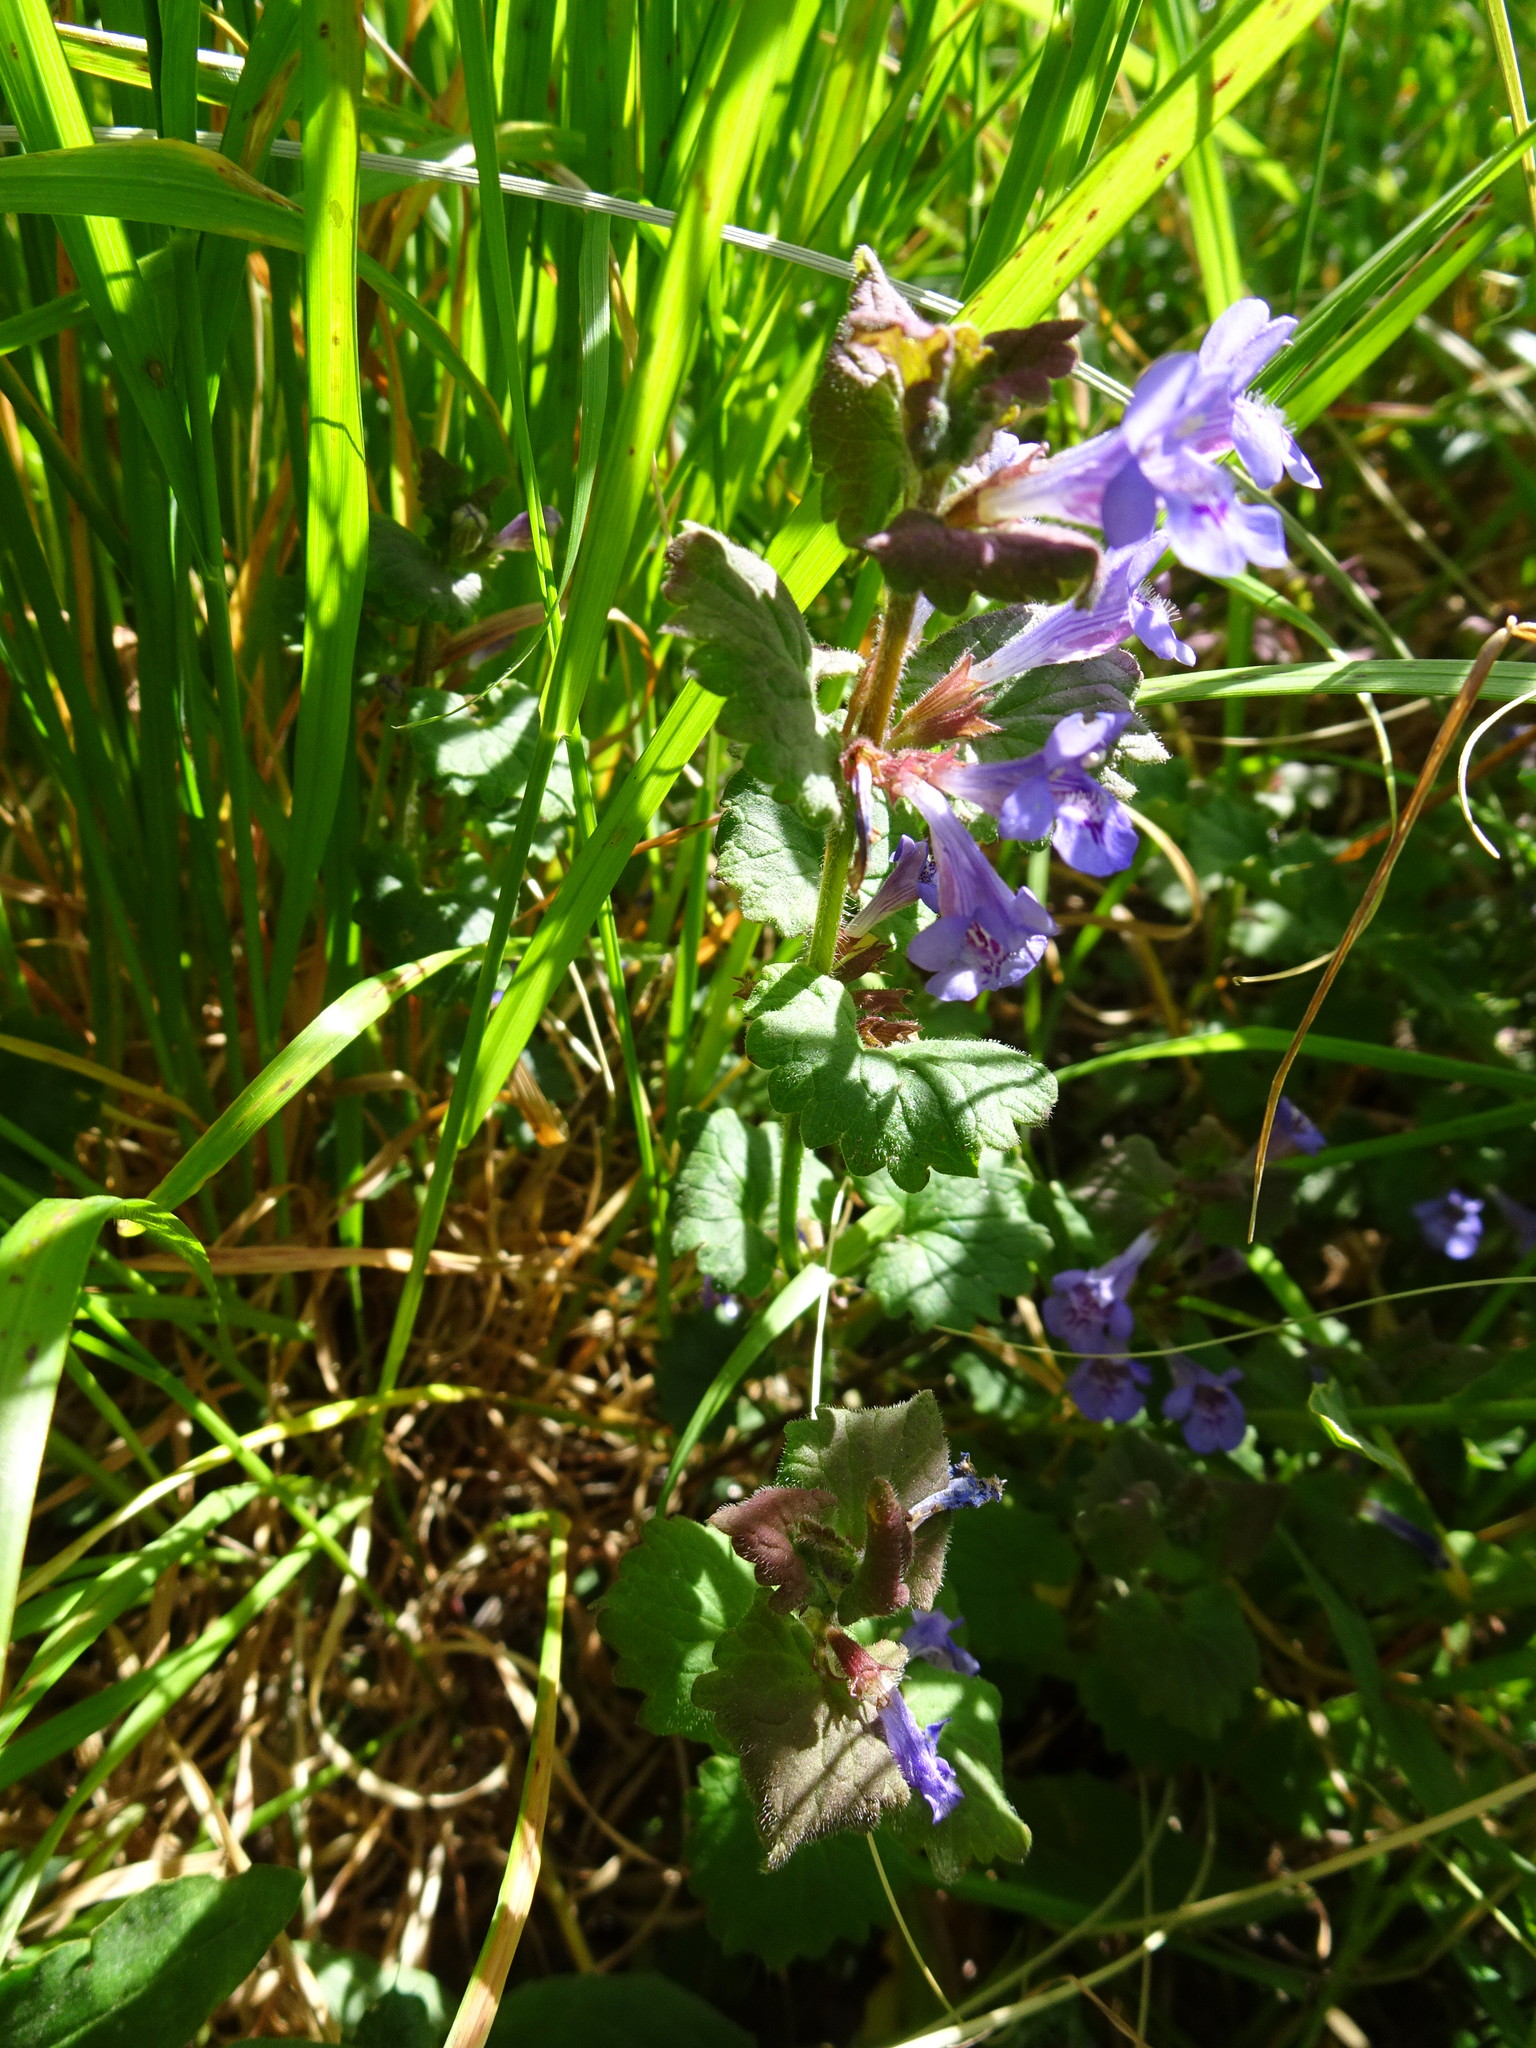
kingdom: Plantae
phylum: Tracheophyta
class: Magnoliopsida
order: Lamiales
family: Lamiaceae
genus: Glechoma
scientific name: Glechoma hederacea
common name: Ground ivy
